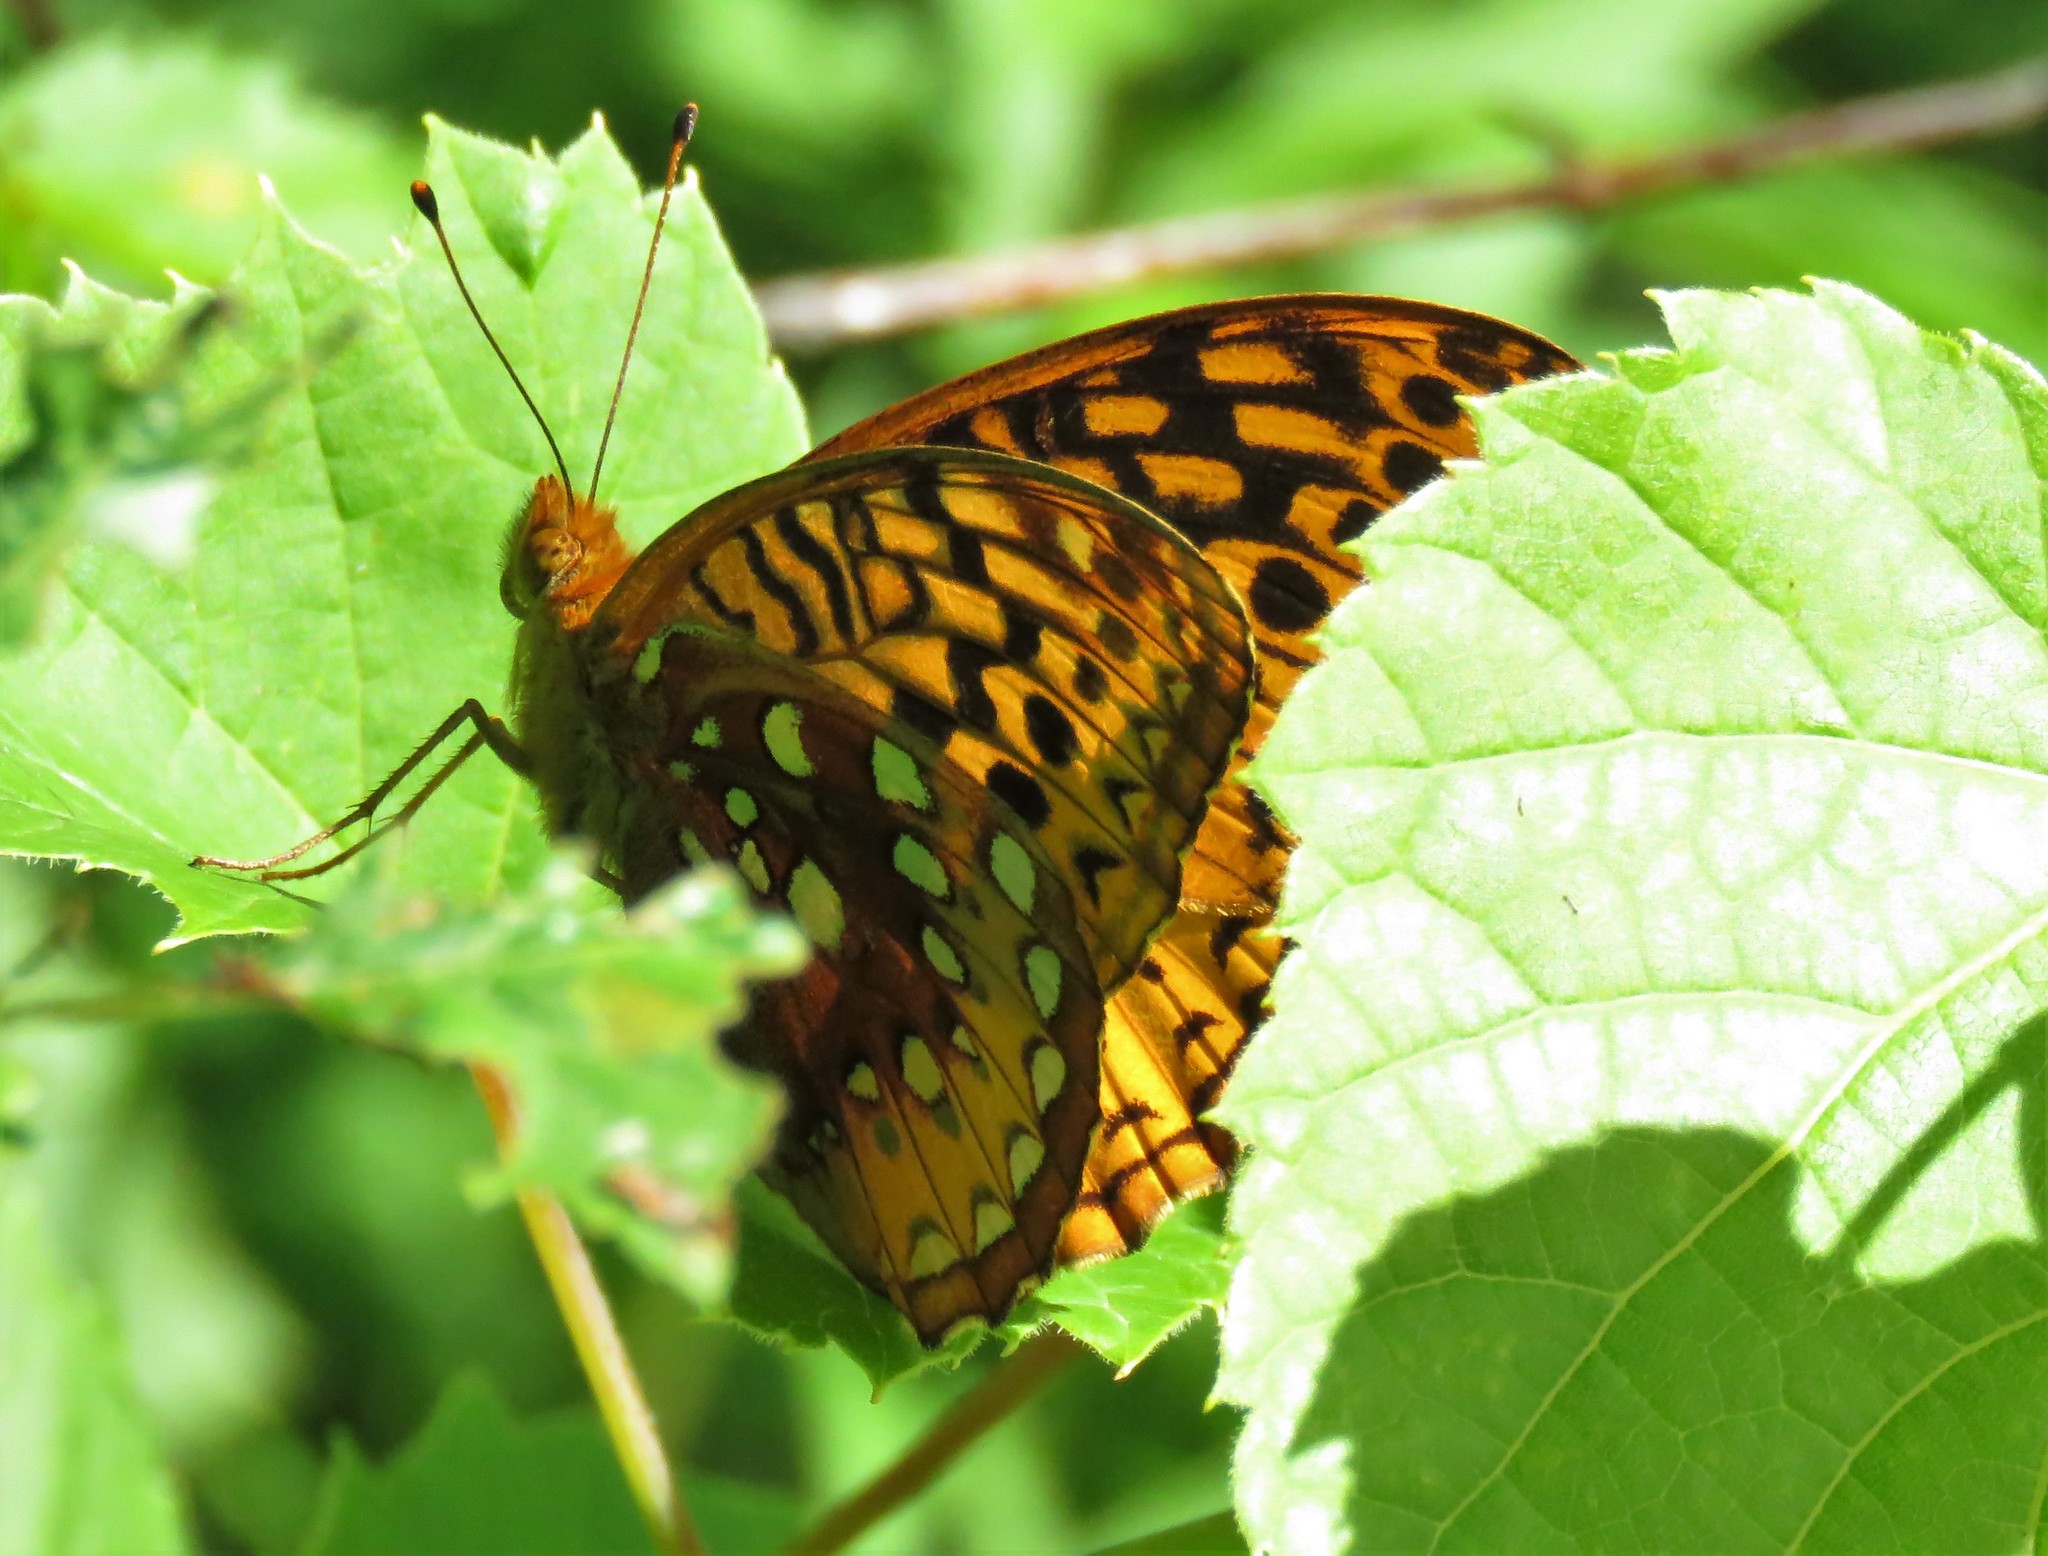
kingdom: Animalia
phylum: Arthropoda
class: Insecta
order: Lepidoptera
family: Nymphalidae
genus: Speyeria
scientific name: Speyeria cybele
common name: Great spangled fritillary
